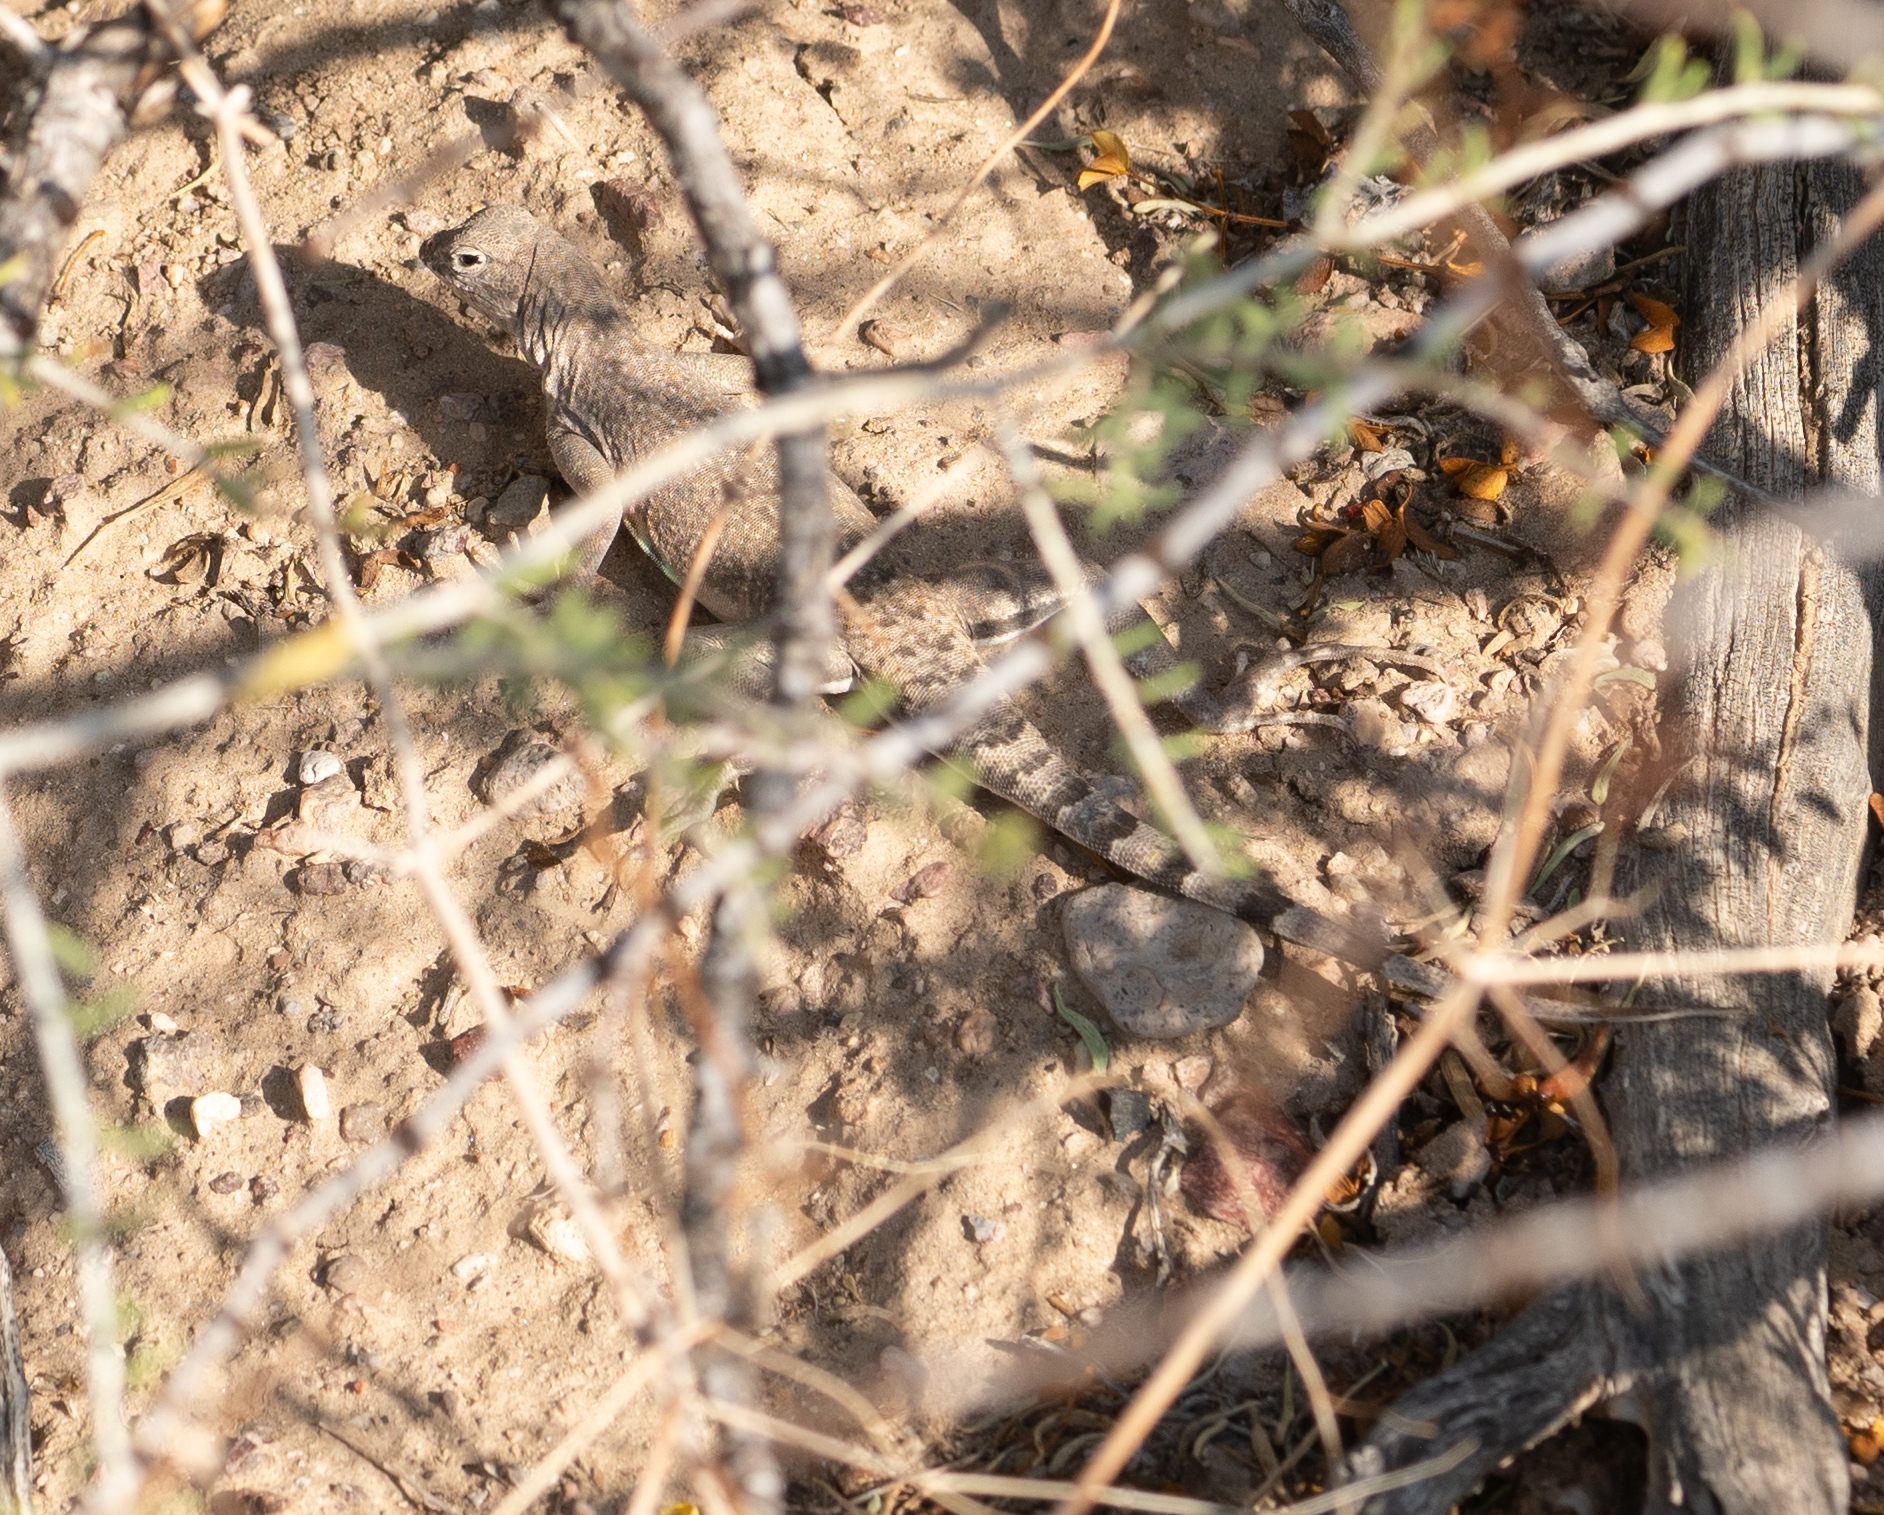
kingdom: Animalia
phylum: Chordata
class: Squamata
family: Phrynosomatidae
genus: Callisaurus
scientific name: Callisaurus draconoides
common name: Zebra-tailed lizard
